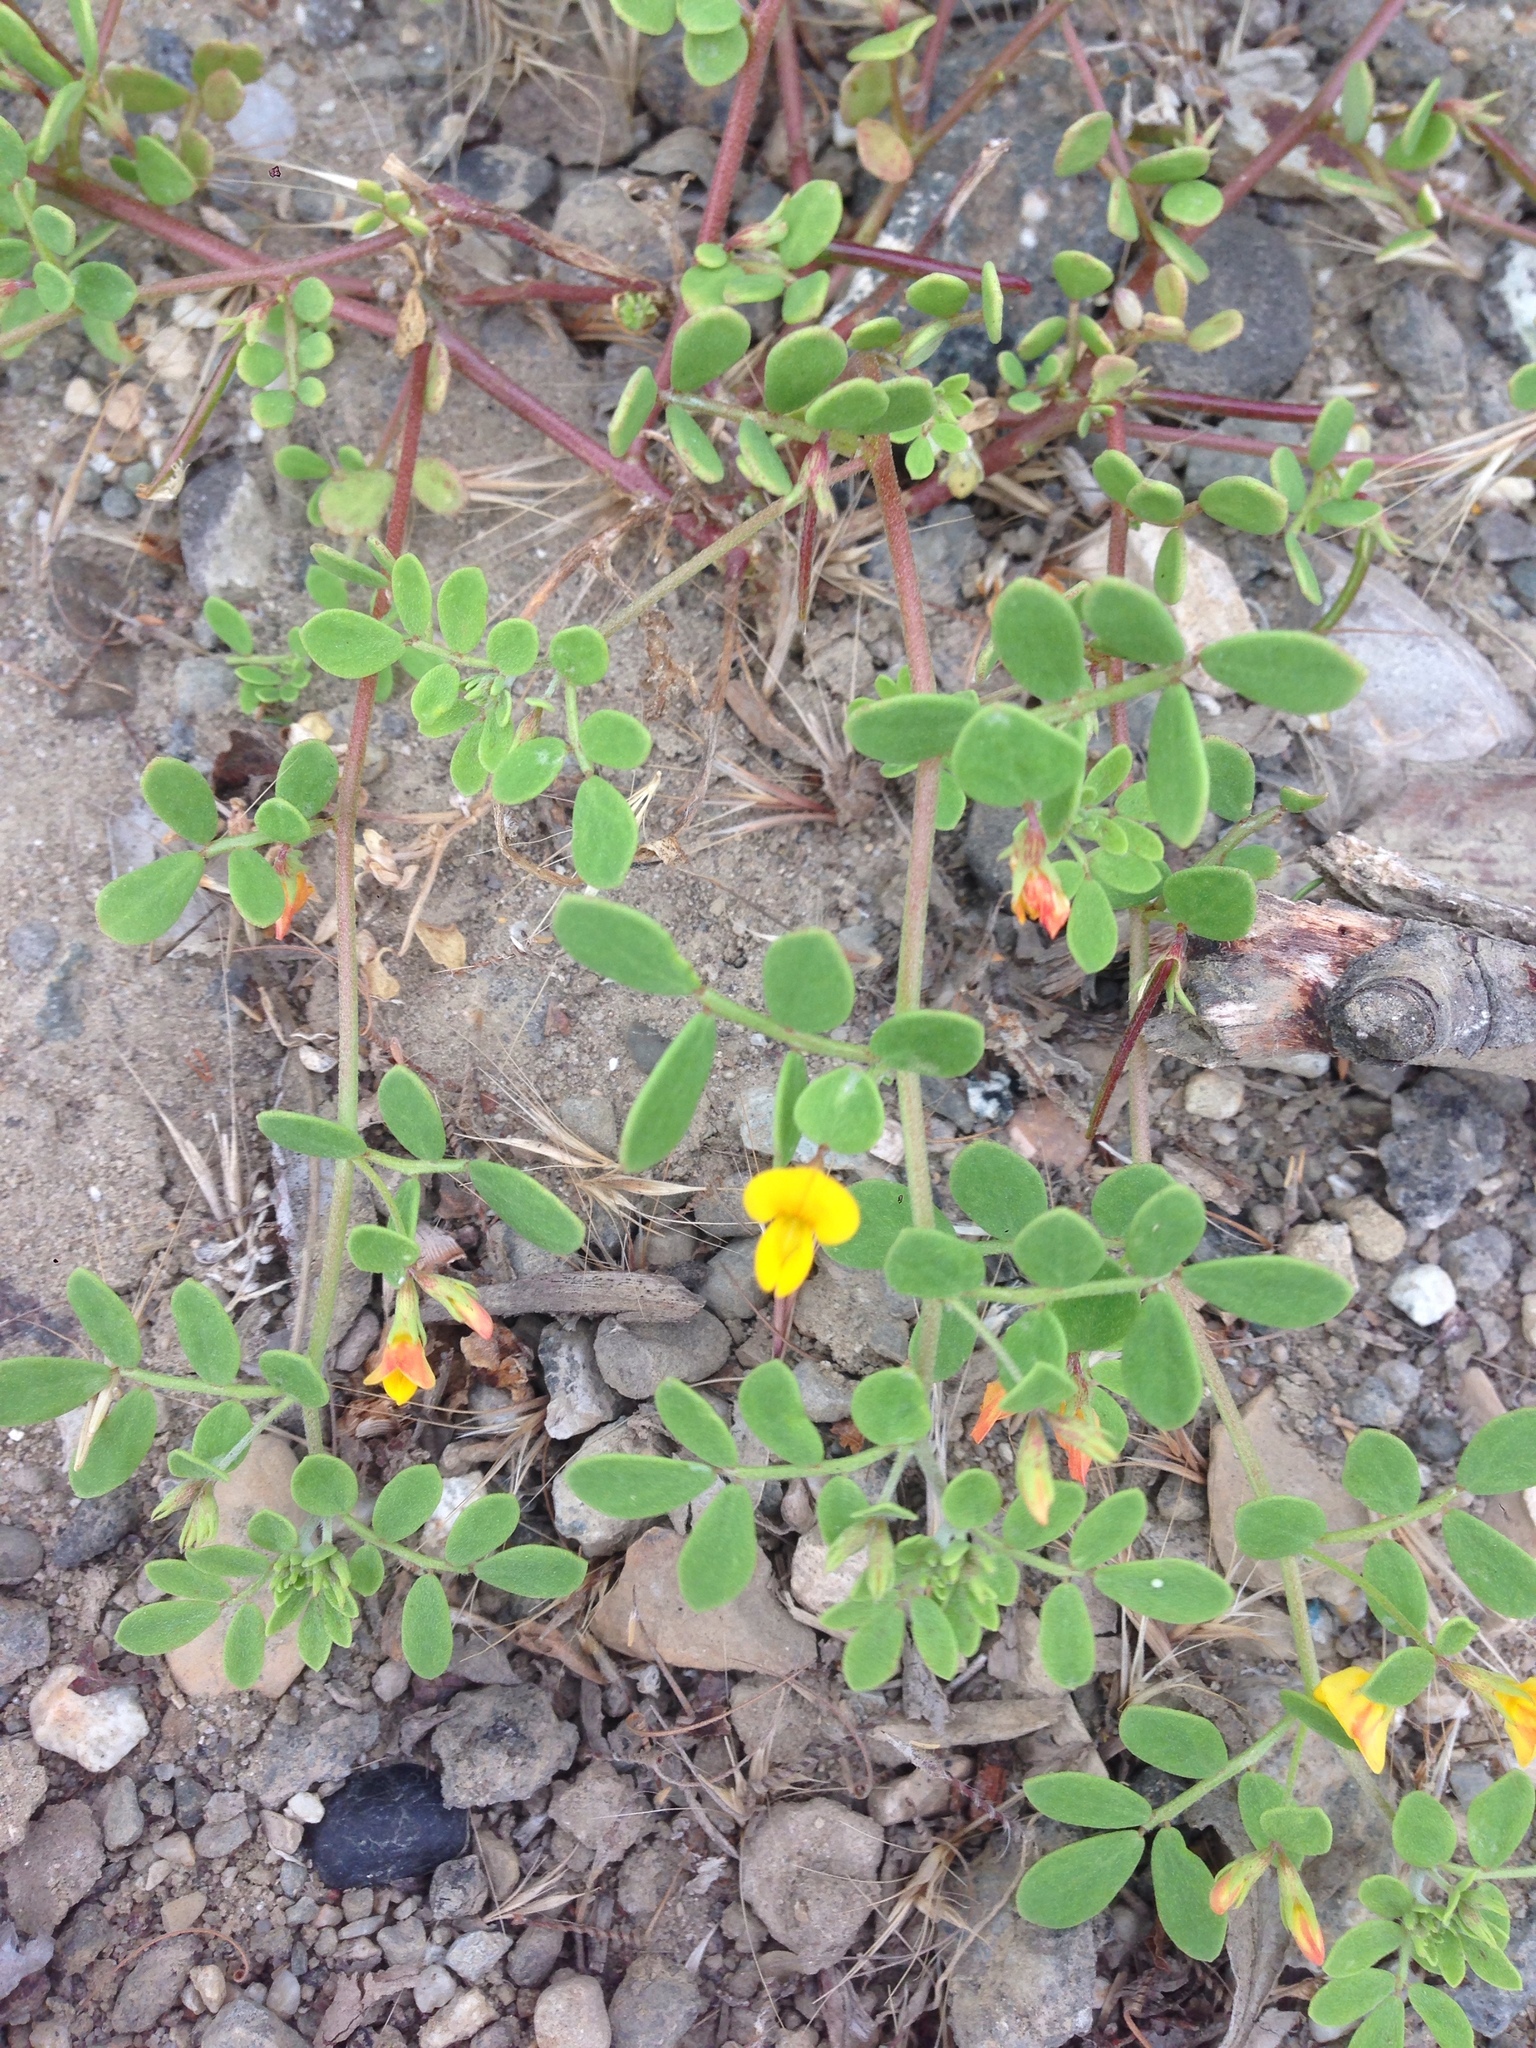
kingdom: Plantae
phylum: Tracheophyta
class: Magnoliopsida
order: Fabales
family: Fabaceae
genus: Acmispon
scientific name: Acmispon maritimus
